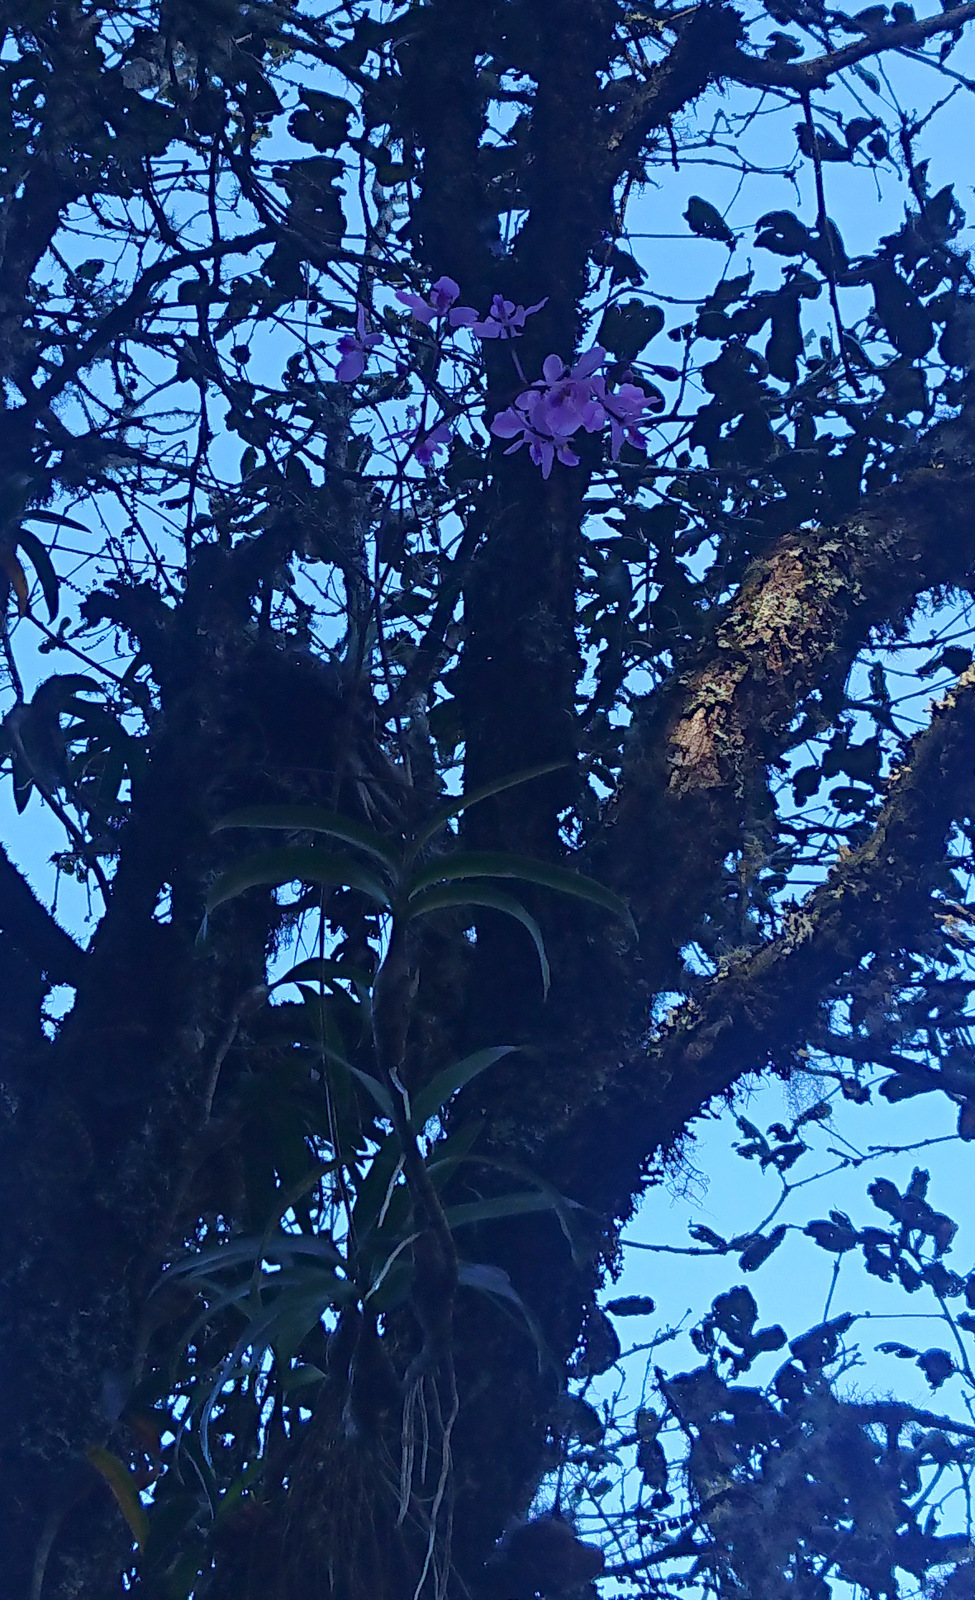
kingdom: Plantae
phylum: Tracheophyta
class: Liliopsida
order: Asparagales
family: Orchidaceae
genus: Artorima
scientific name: Artorima erubescens
